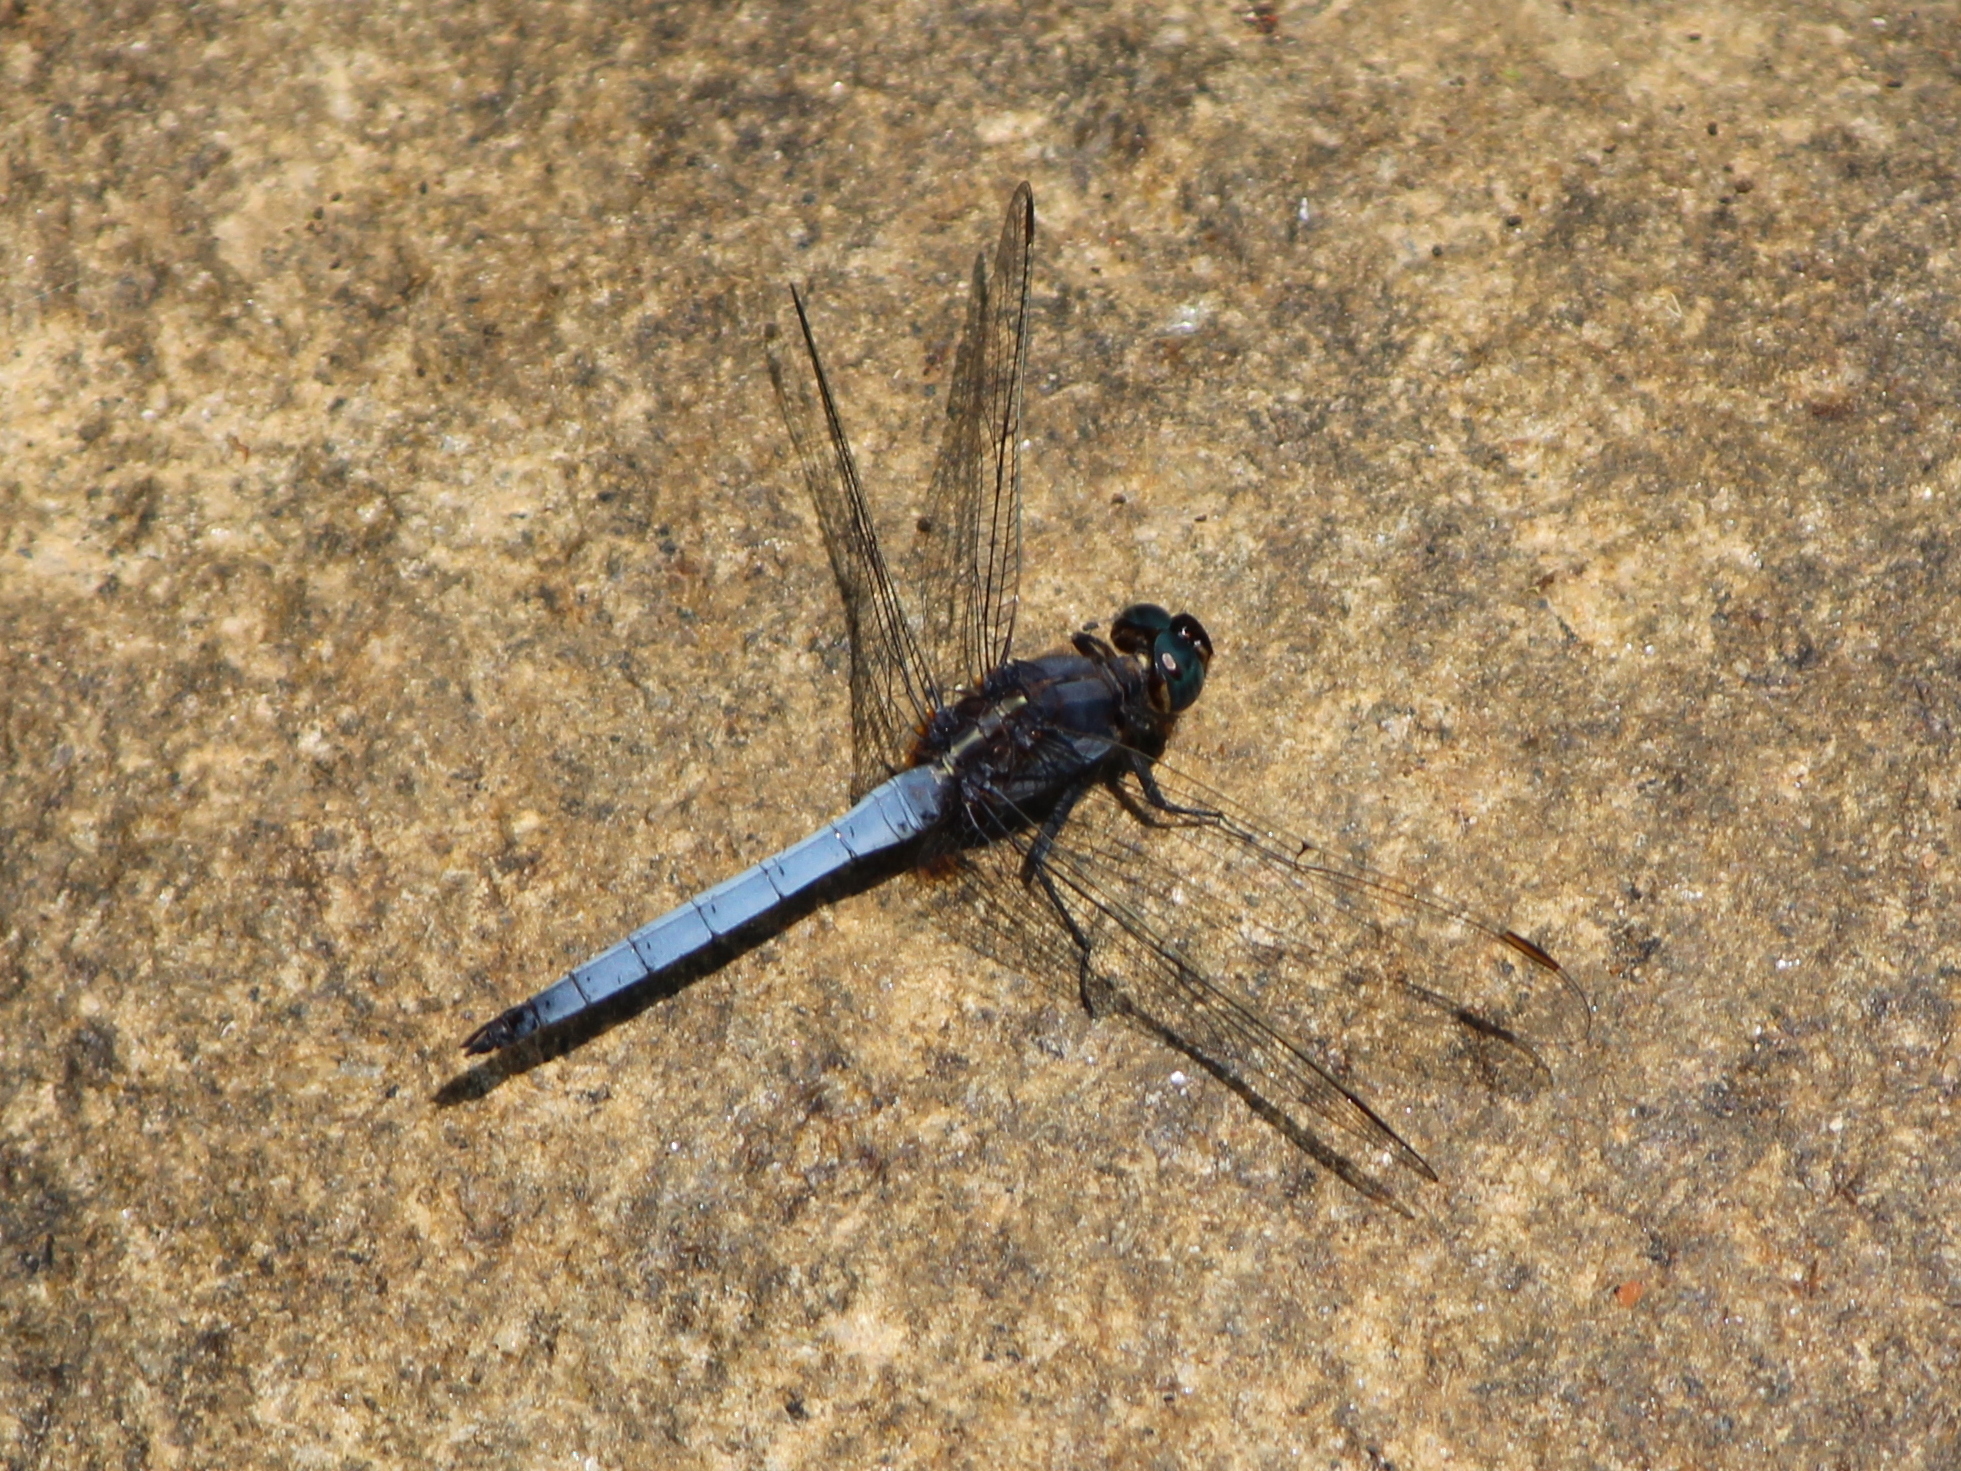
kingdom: Animalia
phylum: Arthropoda
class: Insecta
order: Odonata
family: Libellulidae
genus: Orthetrum
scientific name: Orthetrum glaucum
